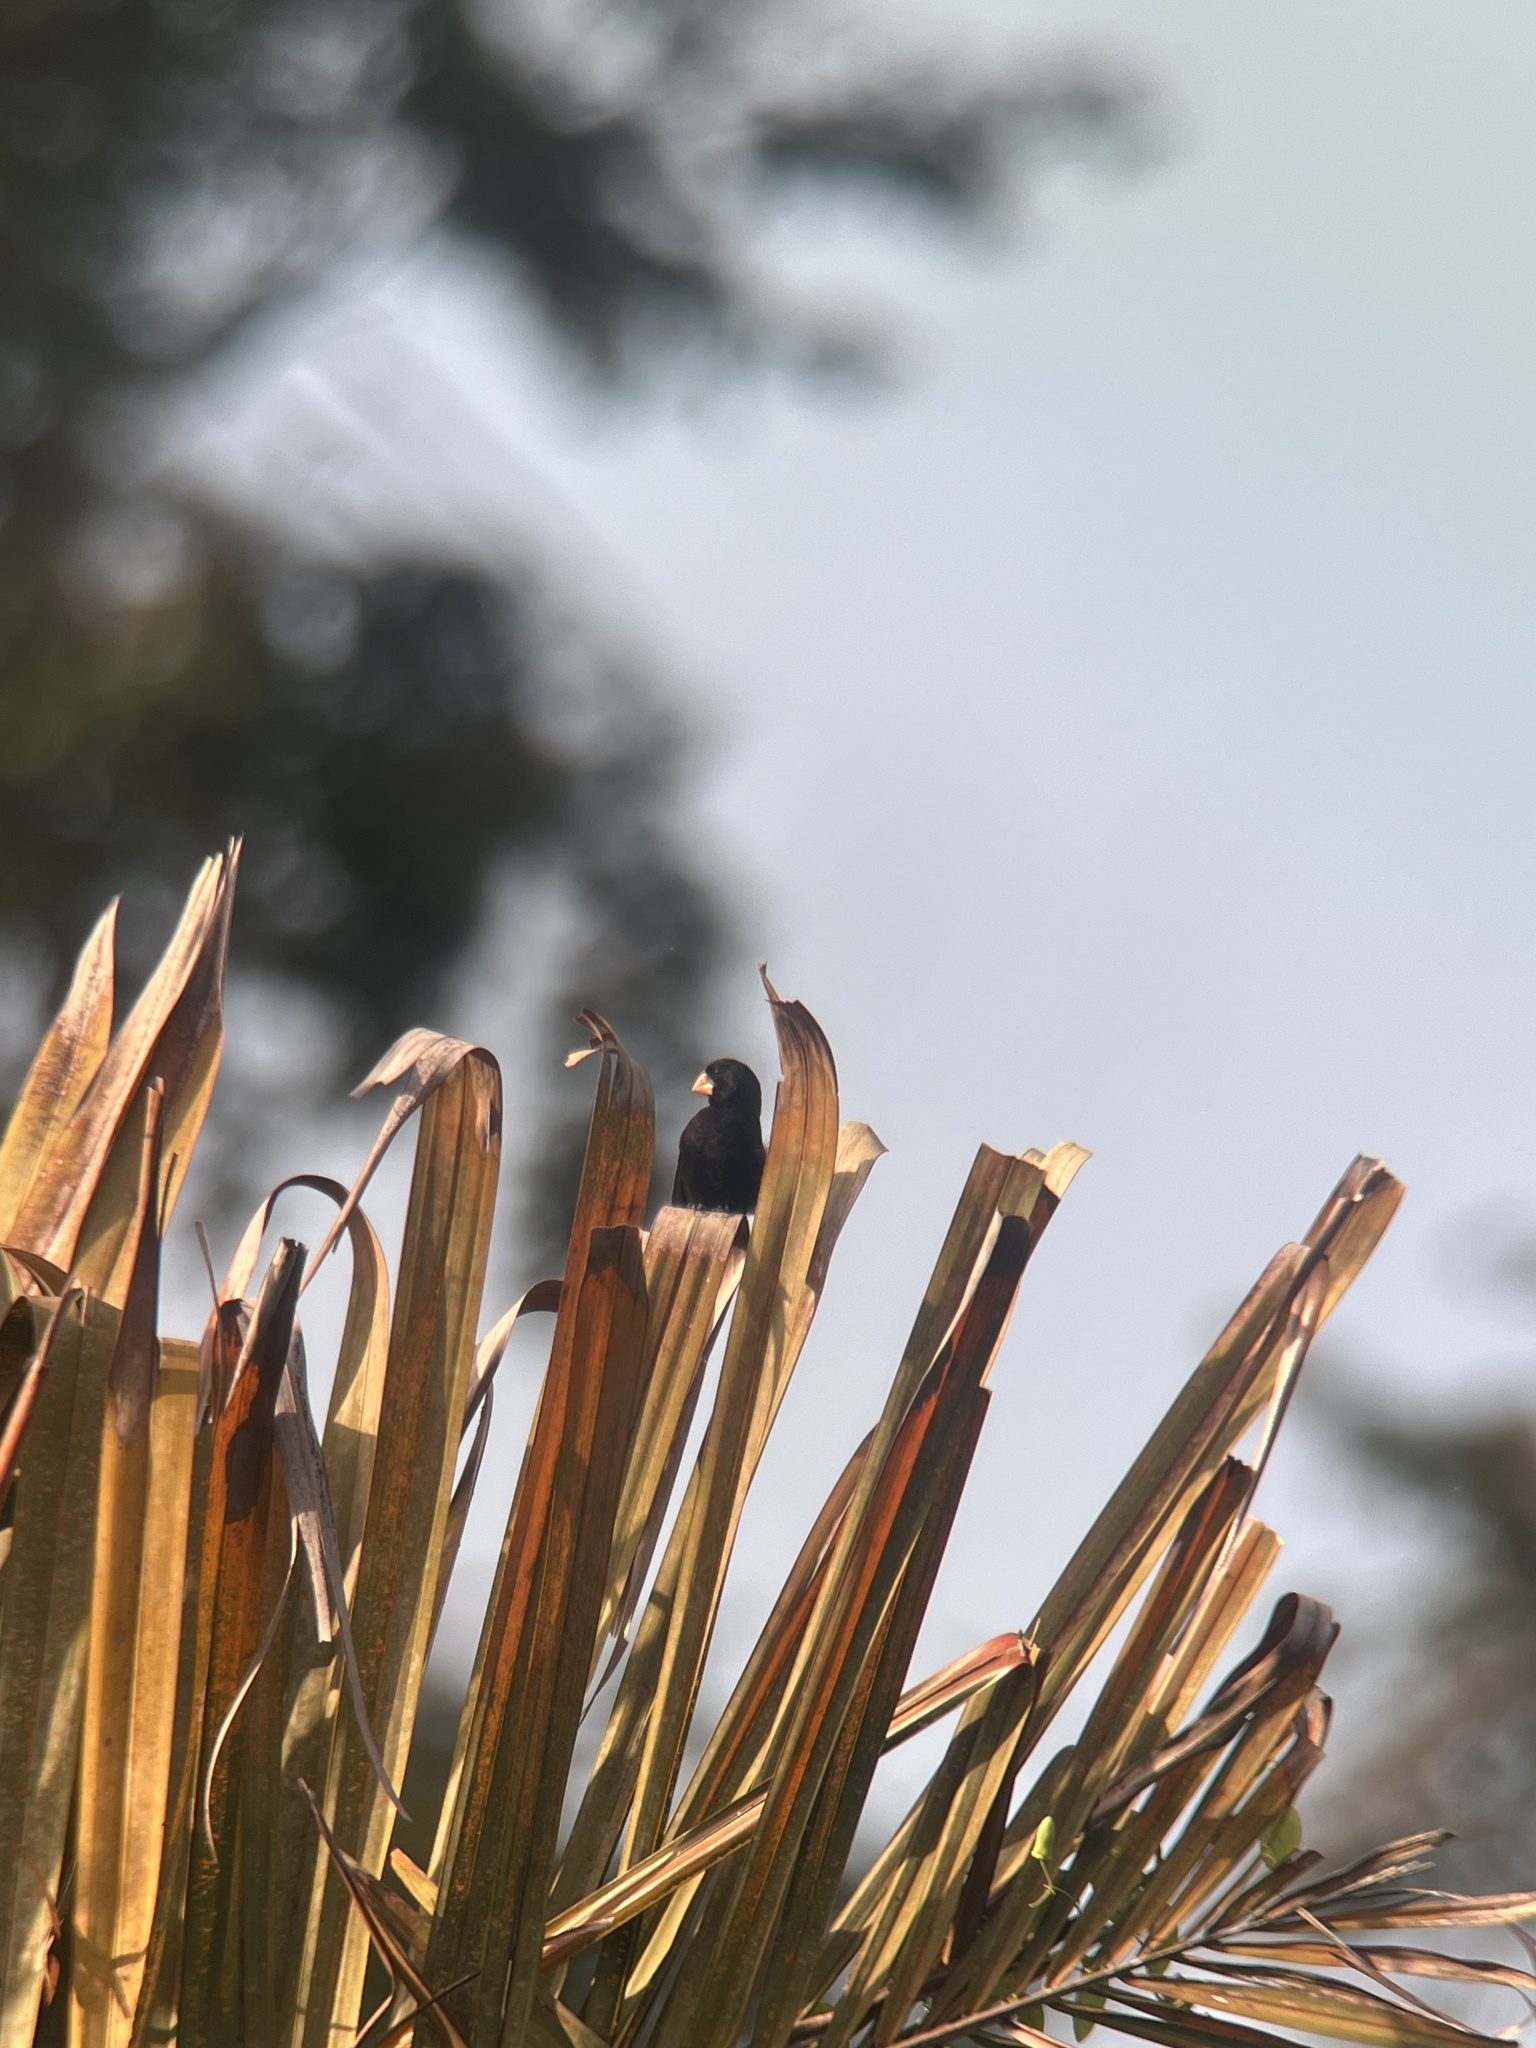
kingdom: Animalia
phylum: Chordata
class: Aves
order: Passeriformes
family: Thraupidae
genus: Sporophila
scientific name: Sporophila nuttingi
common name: Nicaraguan seed-finch
